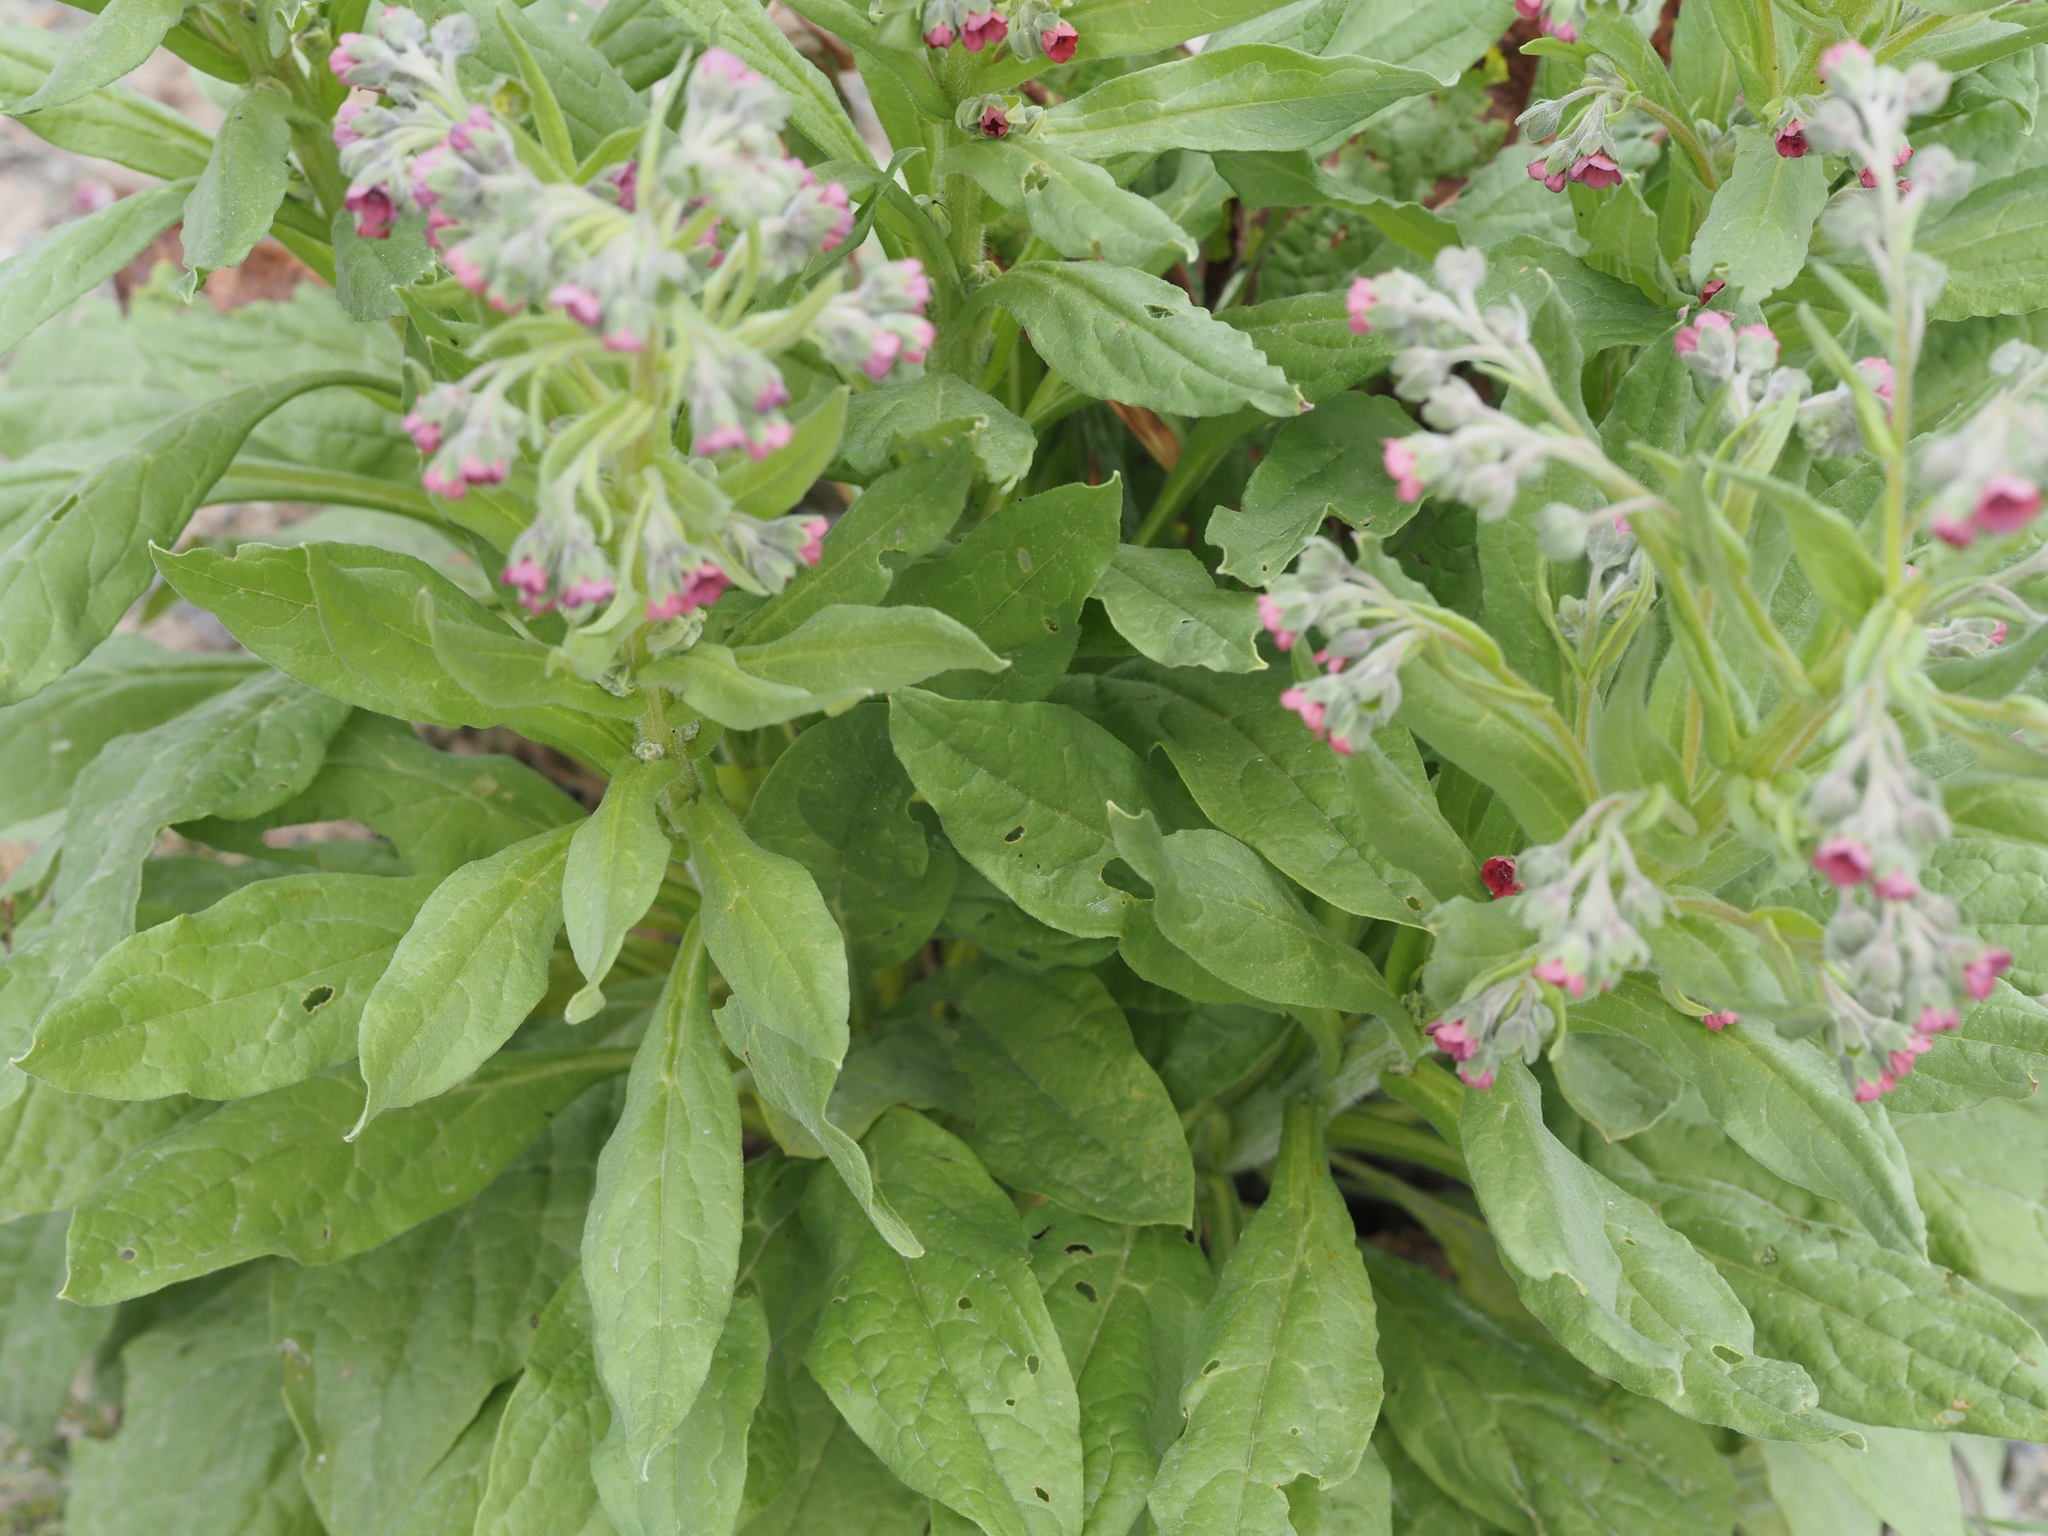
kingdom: Plantae
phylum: Tracheophyta
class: Magnoliopsida
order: Boraginales
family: Boraginaceae
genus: Cynoglossum
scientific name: Cynoglossum officinale
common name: Hound's-tongue
